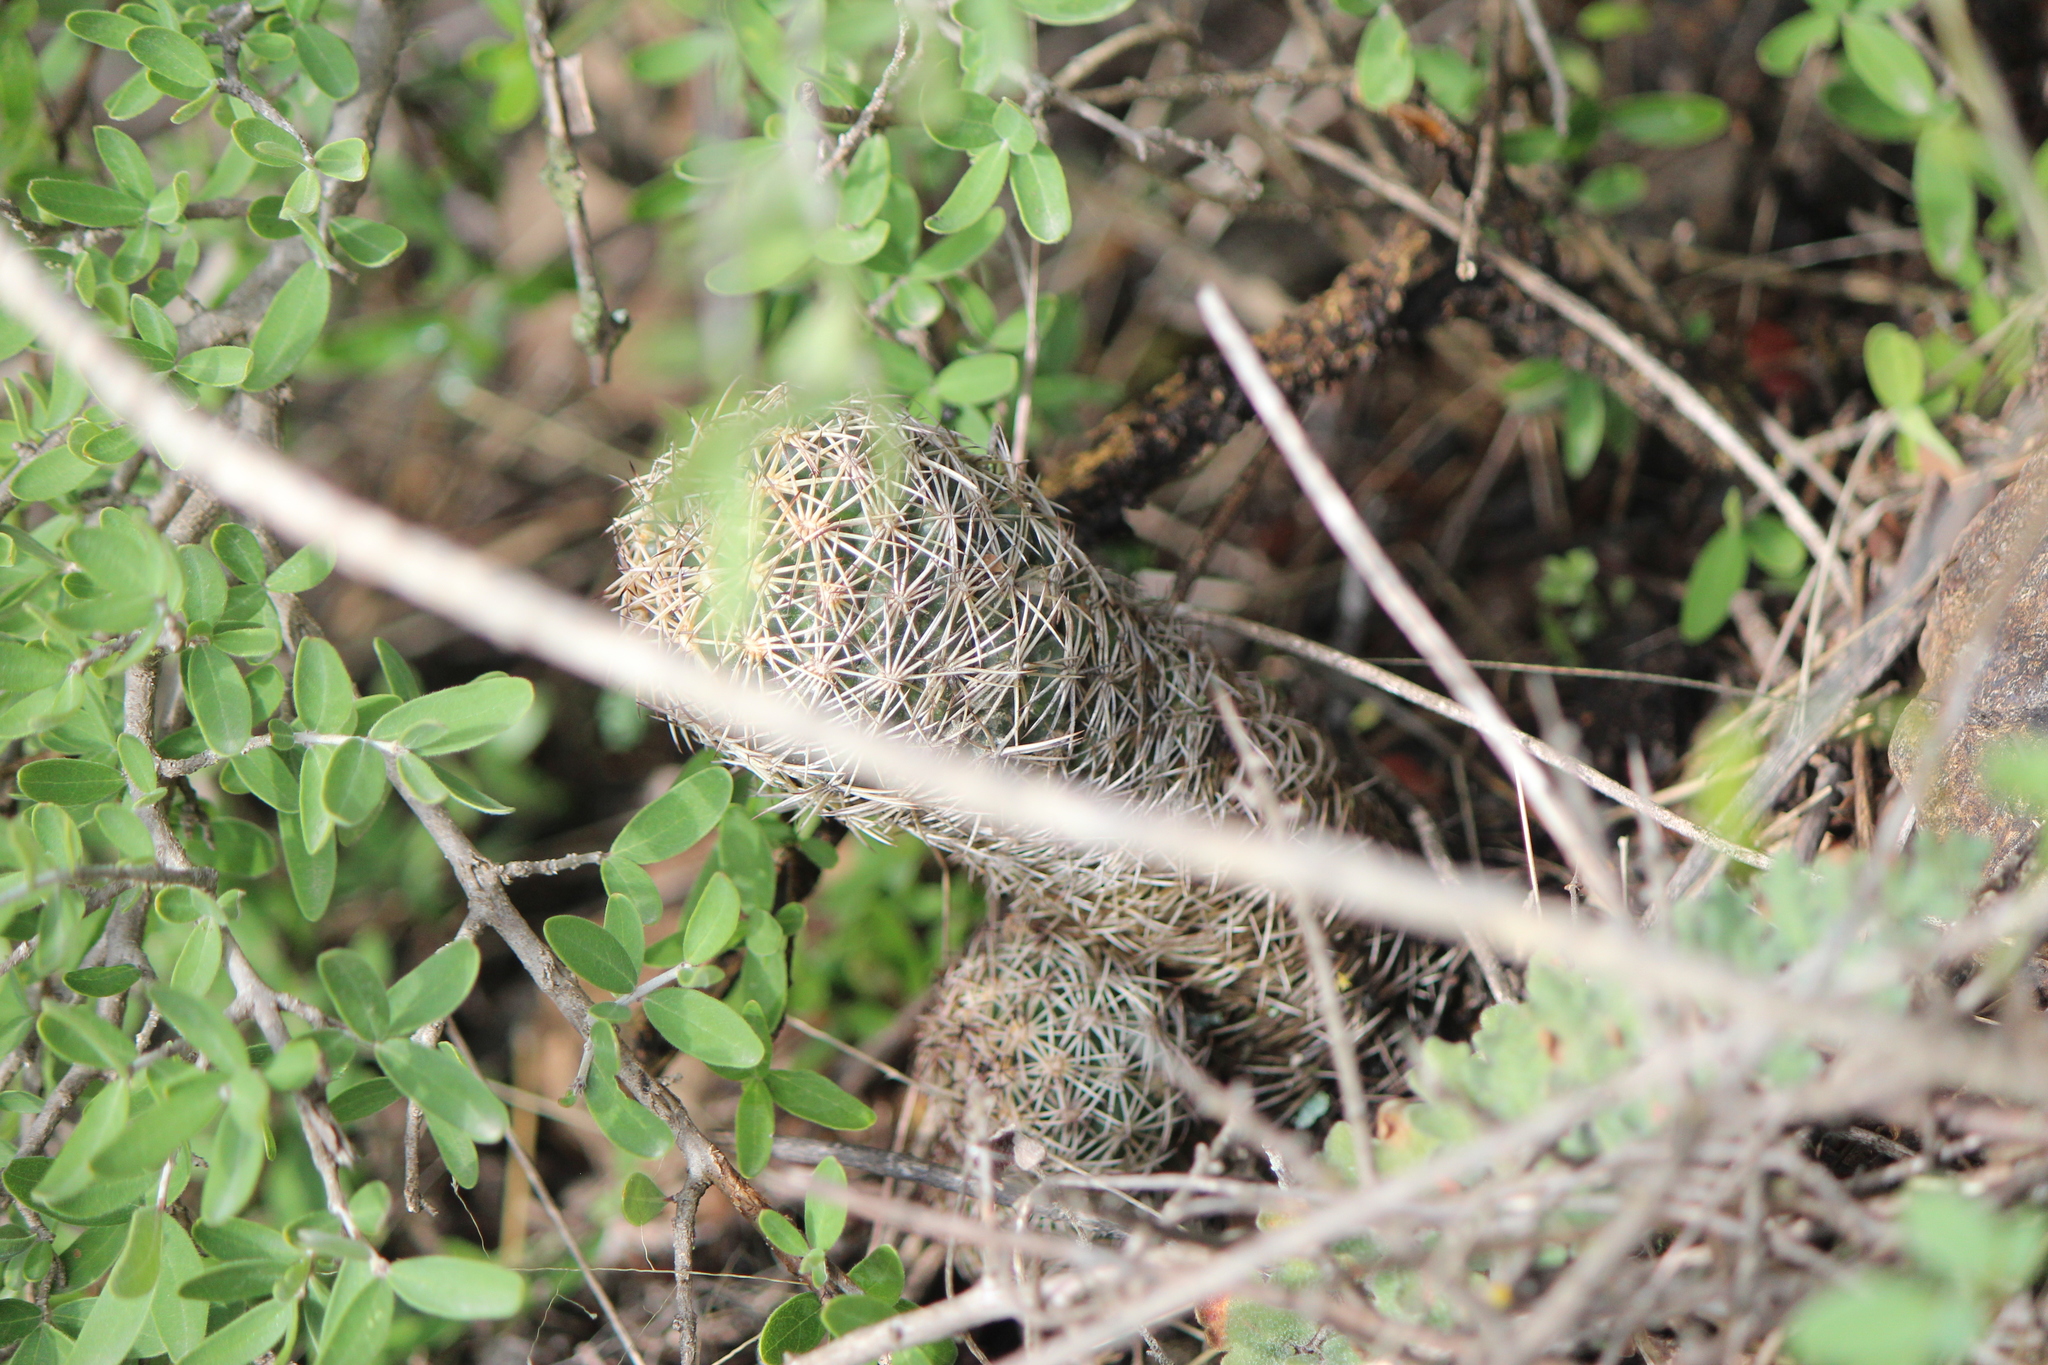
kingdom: Plantae
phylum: Tracheophyta
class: Magnoliopsida
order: Caryophyllales
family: Cactaceae
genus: Coryphantha
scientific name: Coryphantha cornifera
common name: Rhinoceros cactus
